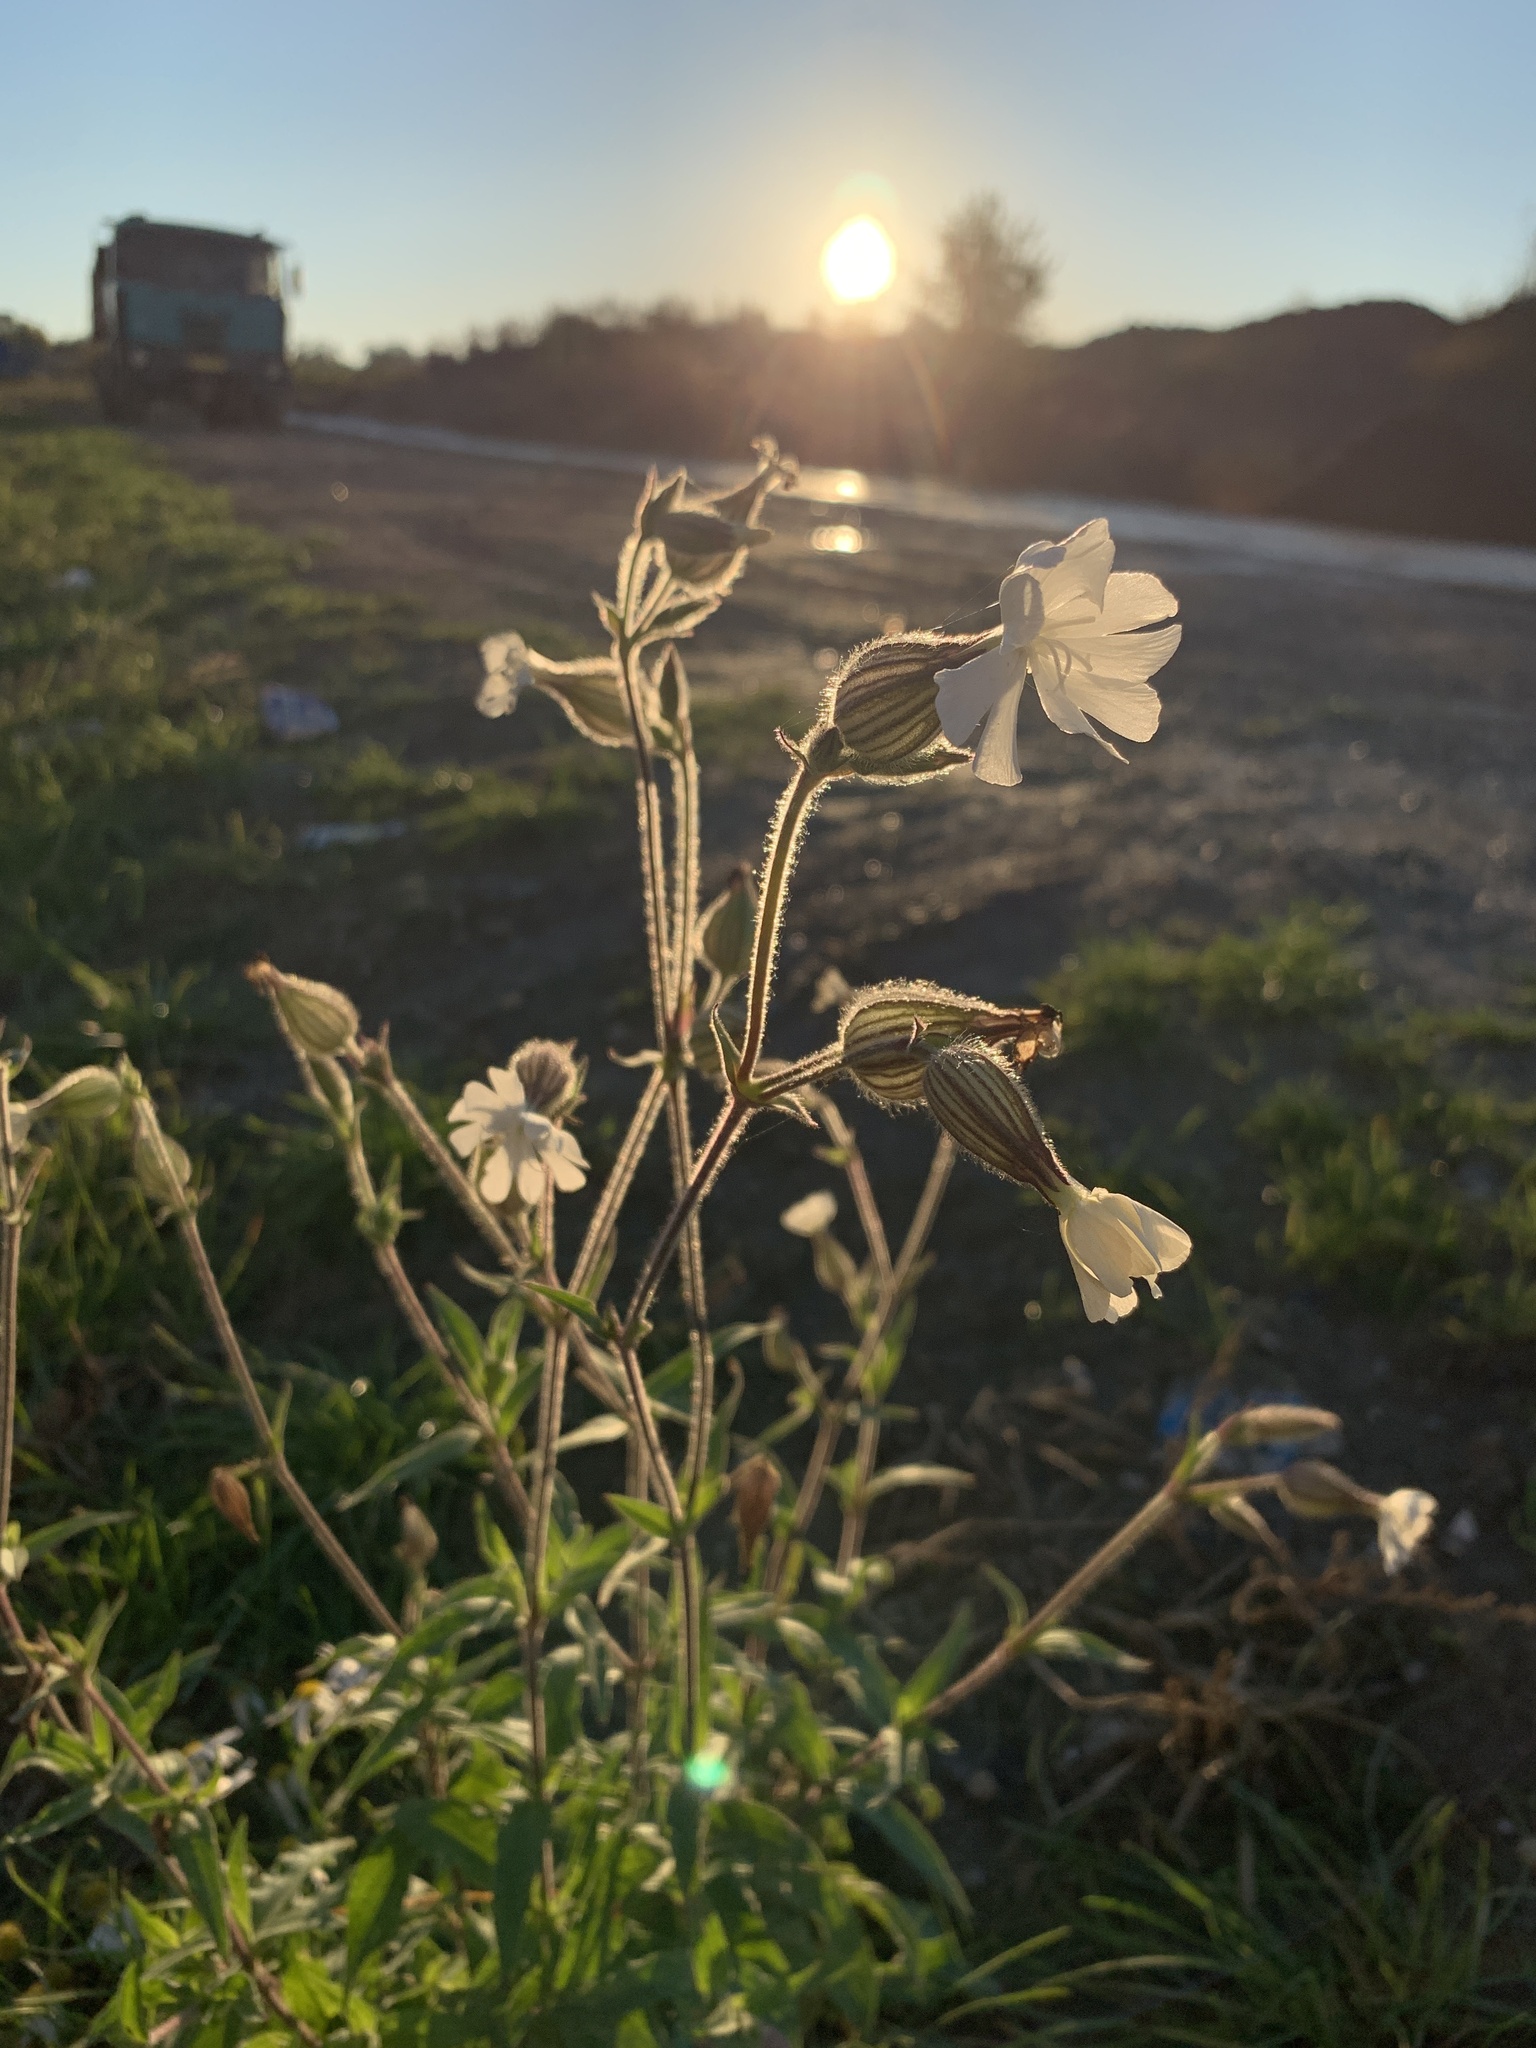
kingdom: Plantae
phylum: Tracheophyta
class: Magnoliopsida
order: Caryophyllales
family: Caryophyllaceae
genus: Silene
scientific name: Silene latifolia
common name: White campion
